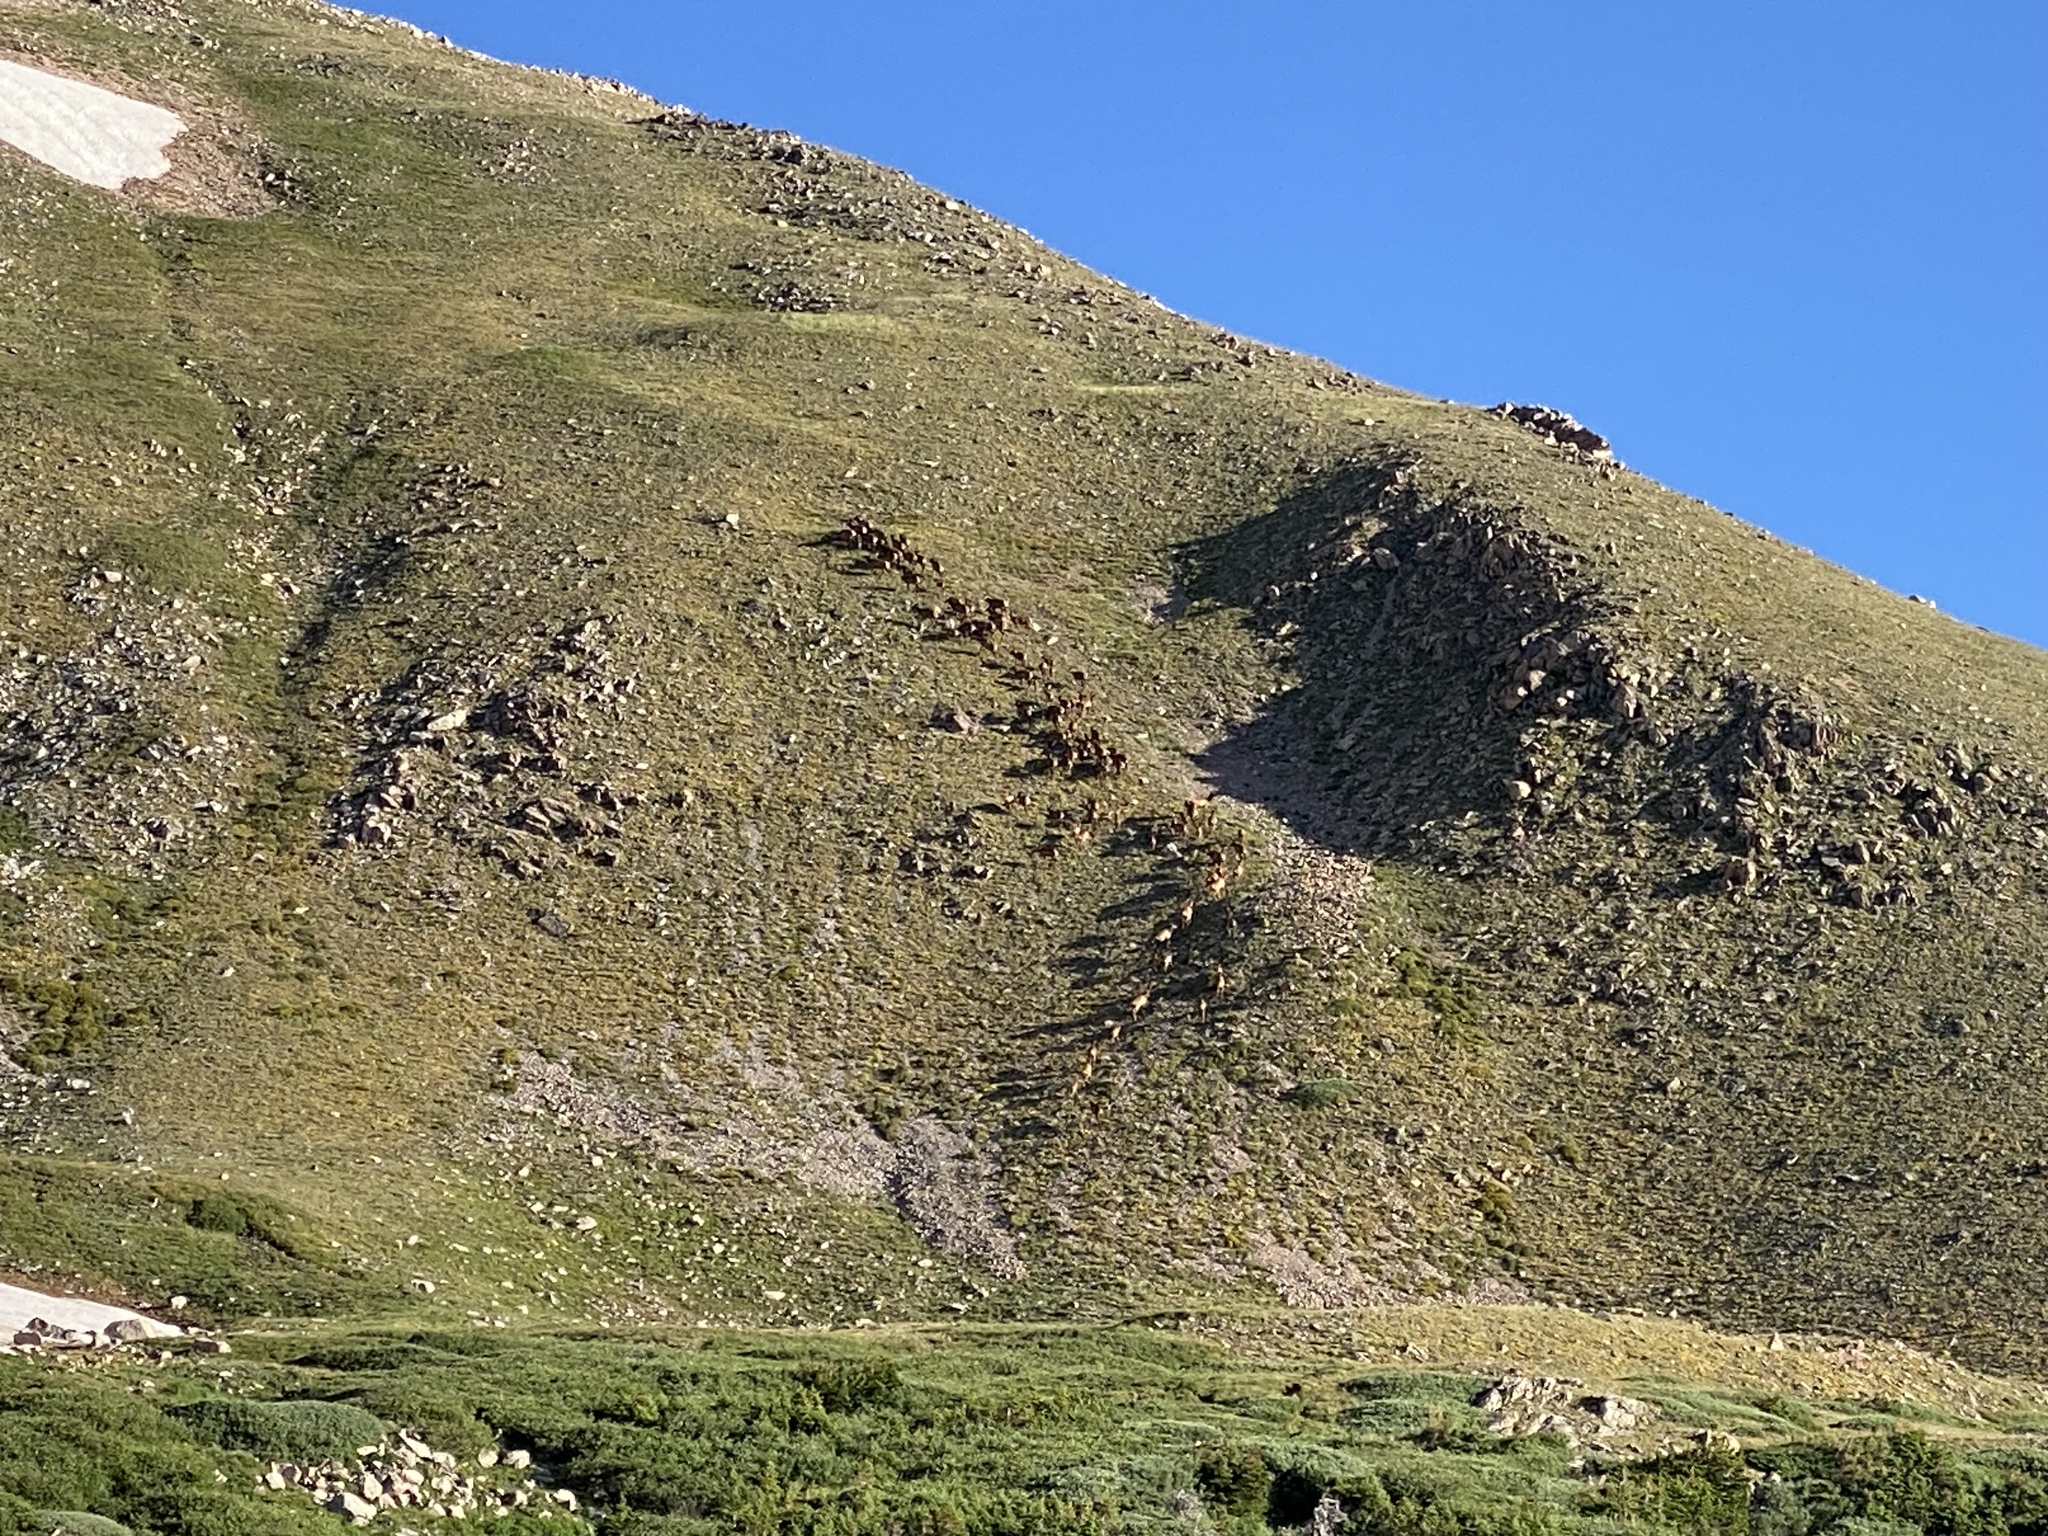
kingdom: Animalia
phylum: Chordata
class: Mammalia
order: Artiodactyla
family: Cervidae
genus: Cervus
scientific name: Cervus elaphus
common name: Red deer
